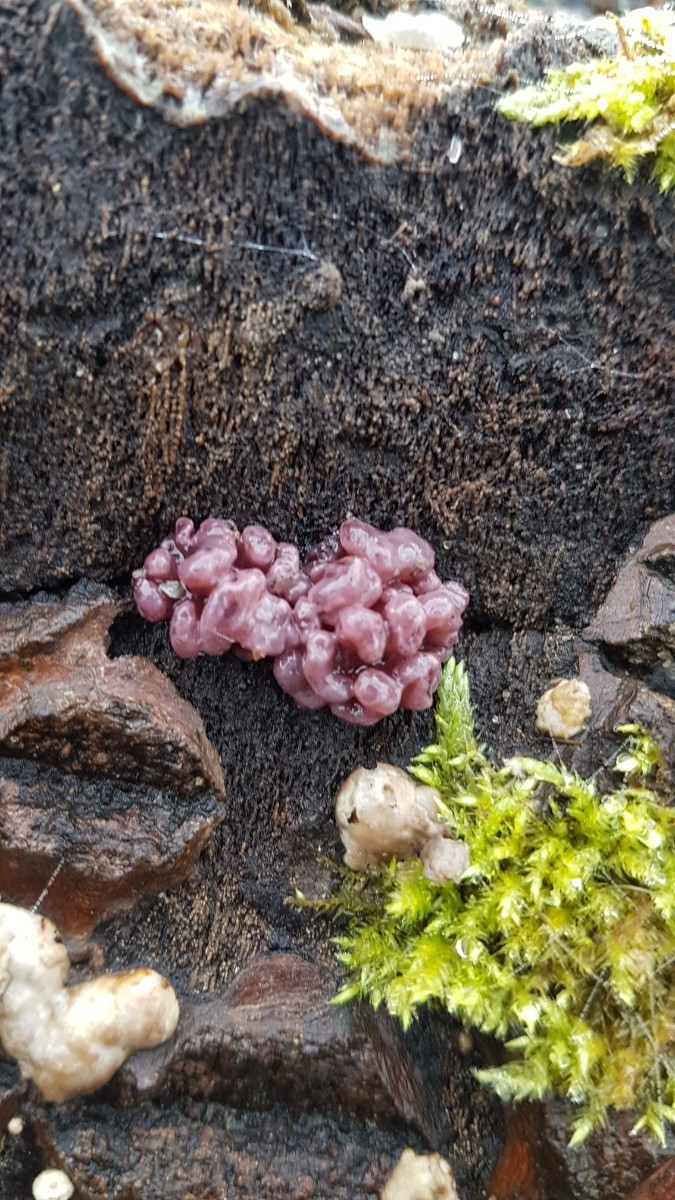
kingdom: Fungi
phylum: Ascomycota
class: Leotiomycetes
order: Helotiales
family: Gelatinodiscaceae
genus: Ascocoryne
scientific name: Ascocoryne sarcoides
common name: Purple jellydisc
